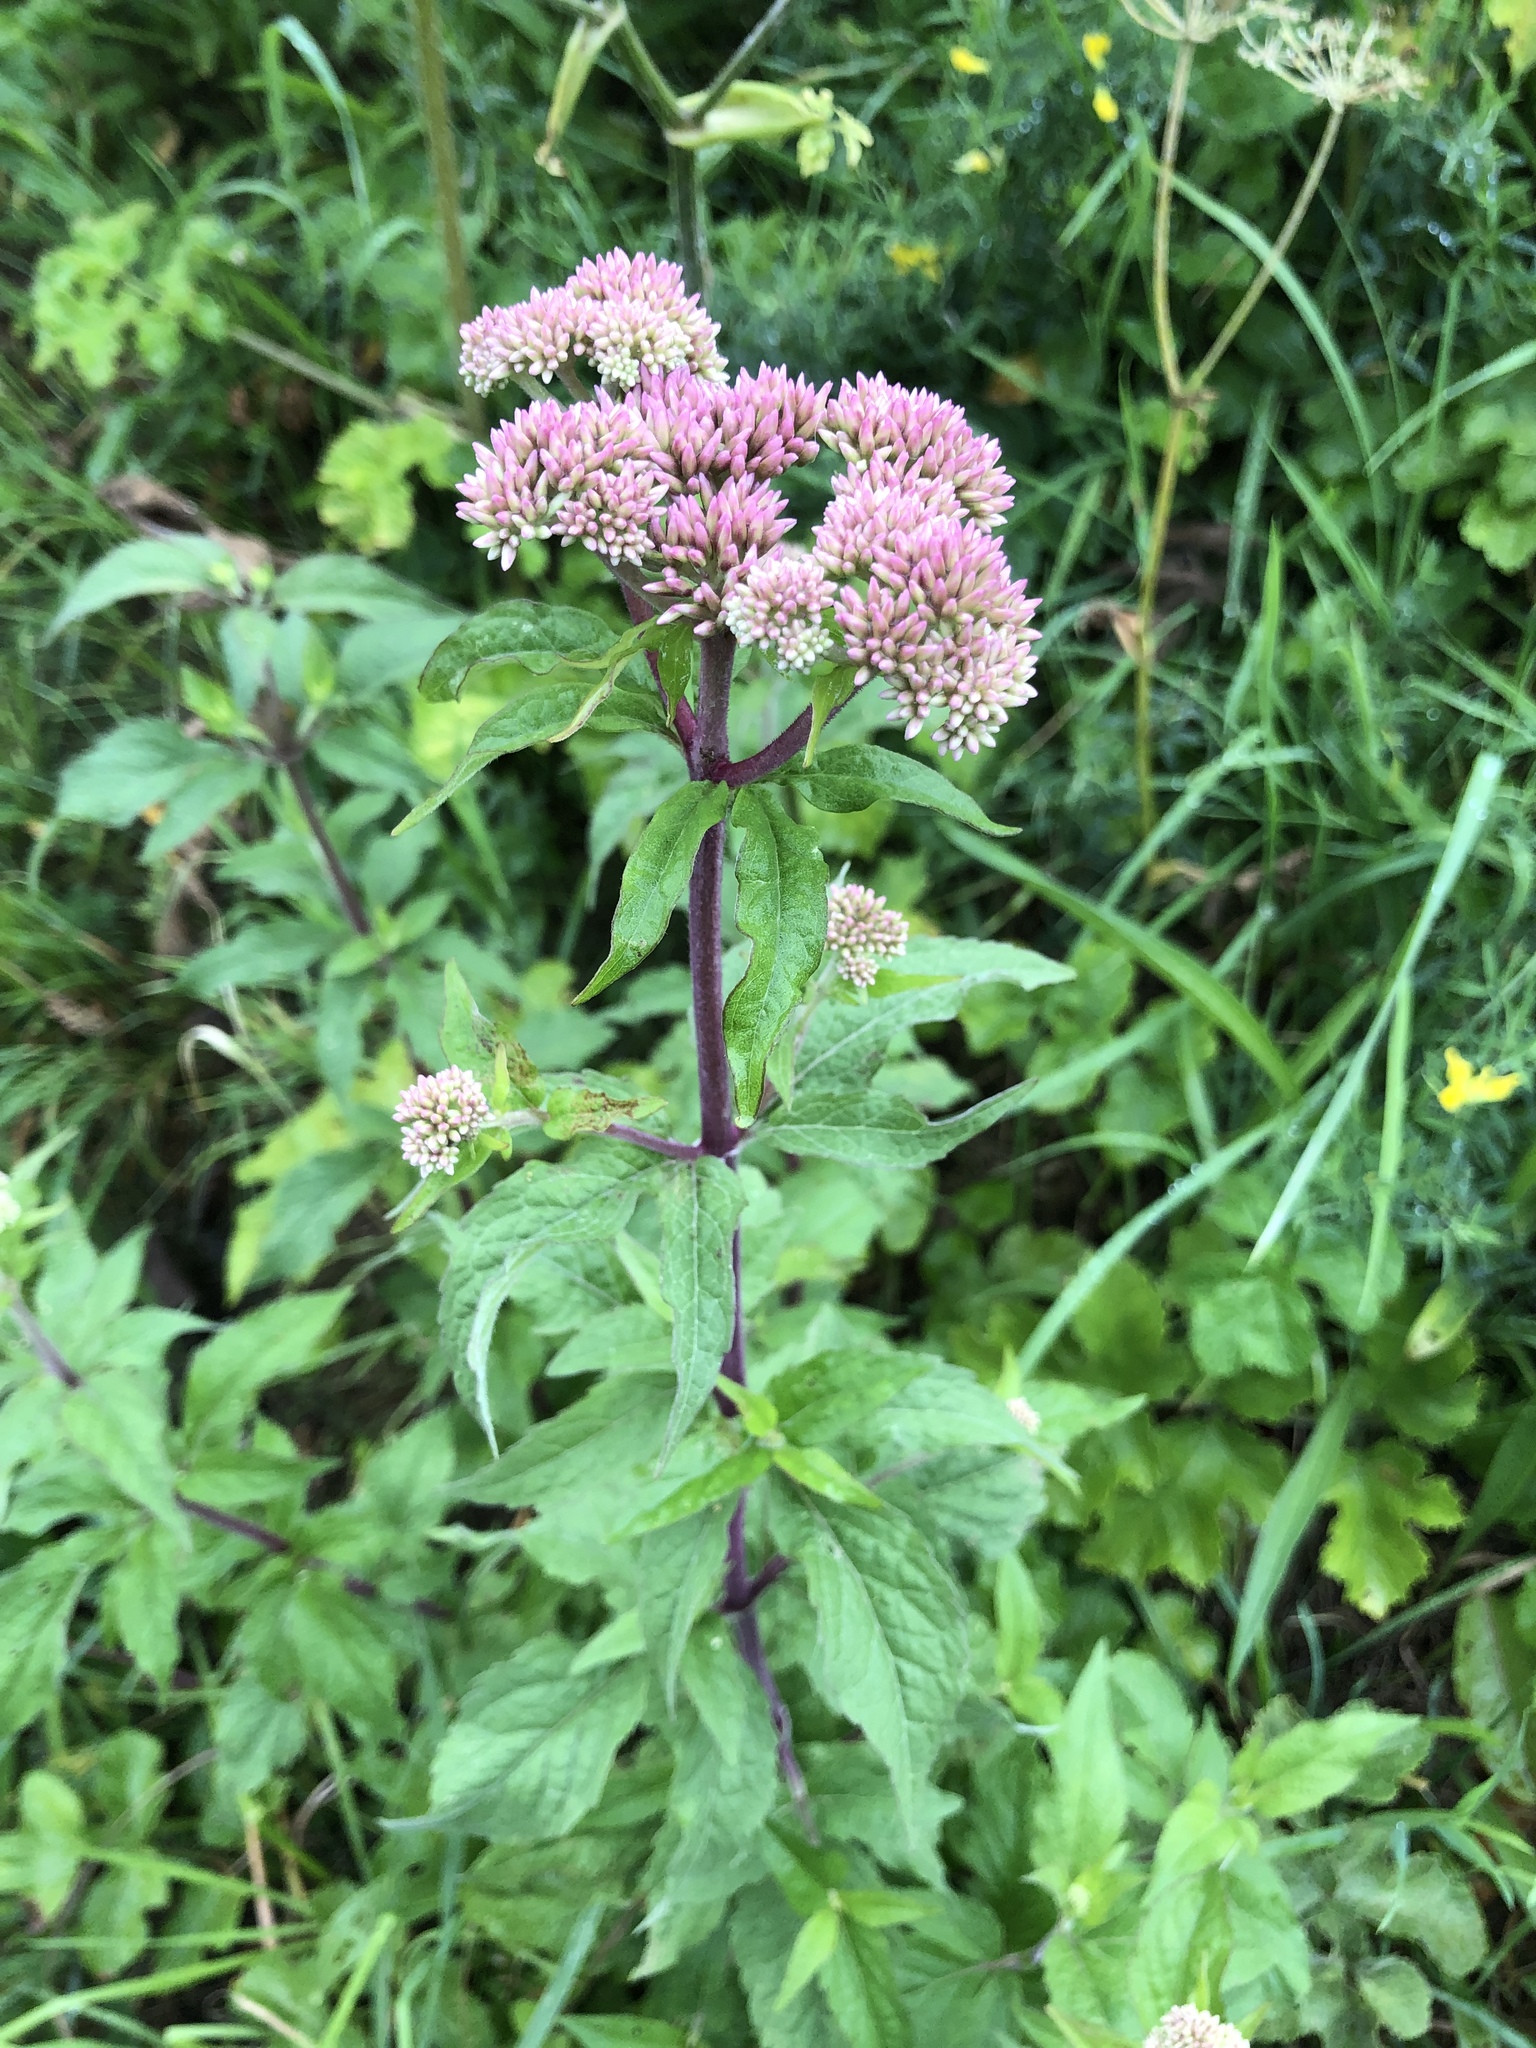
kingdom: Plantae
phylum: Tracheophyta
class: Magnoliopsida
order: Asterales
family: Asteraceae
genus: Eupatorium
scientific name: Eupatorium cannabinum
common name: Hemp-agrimony
